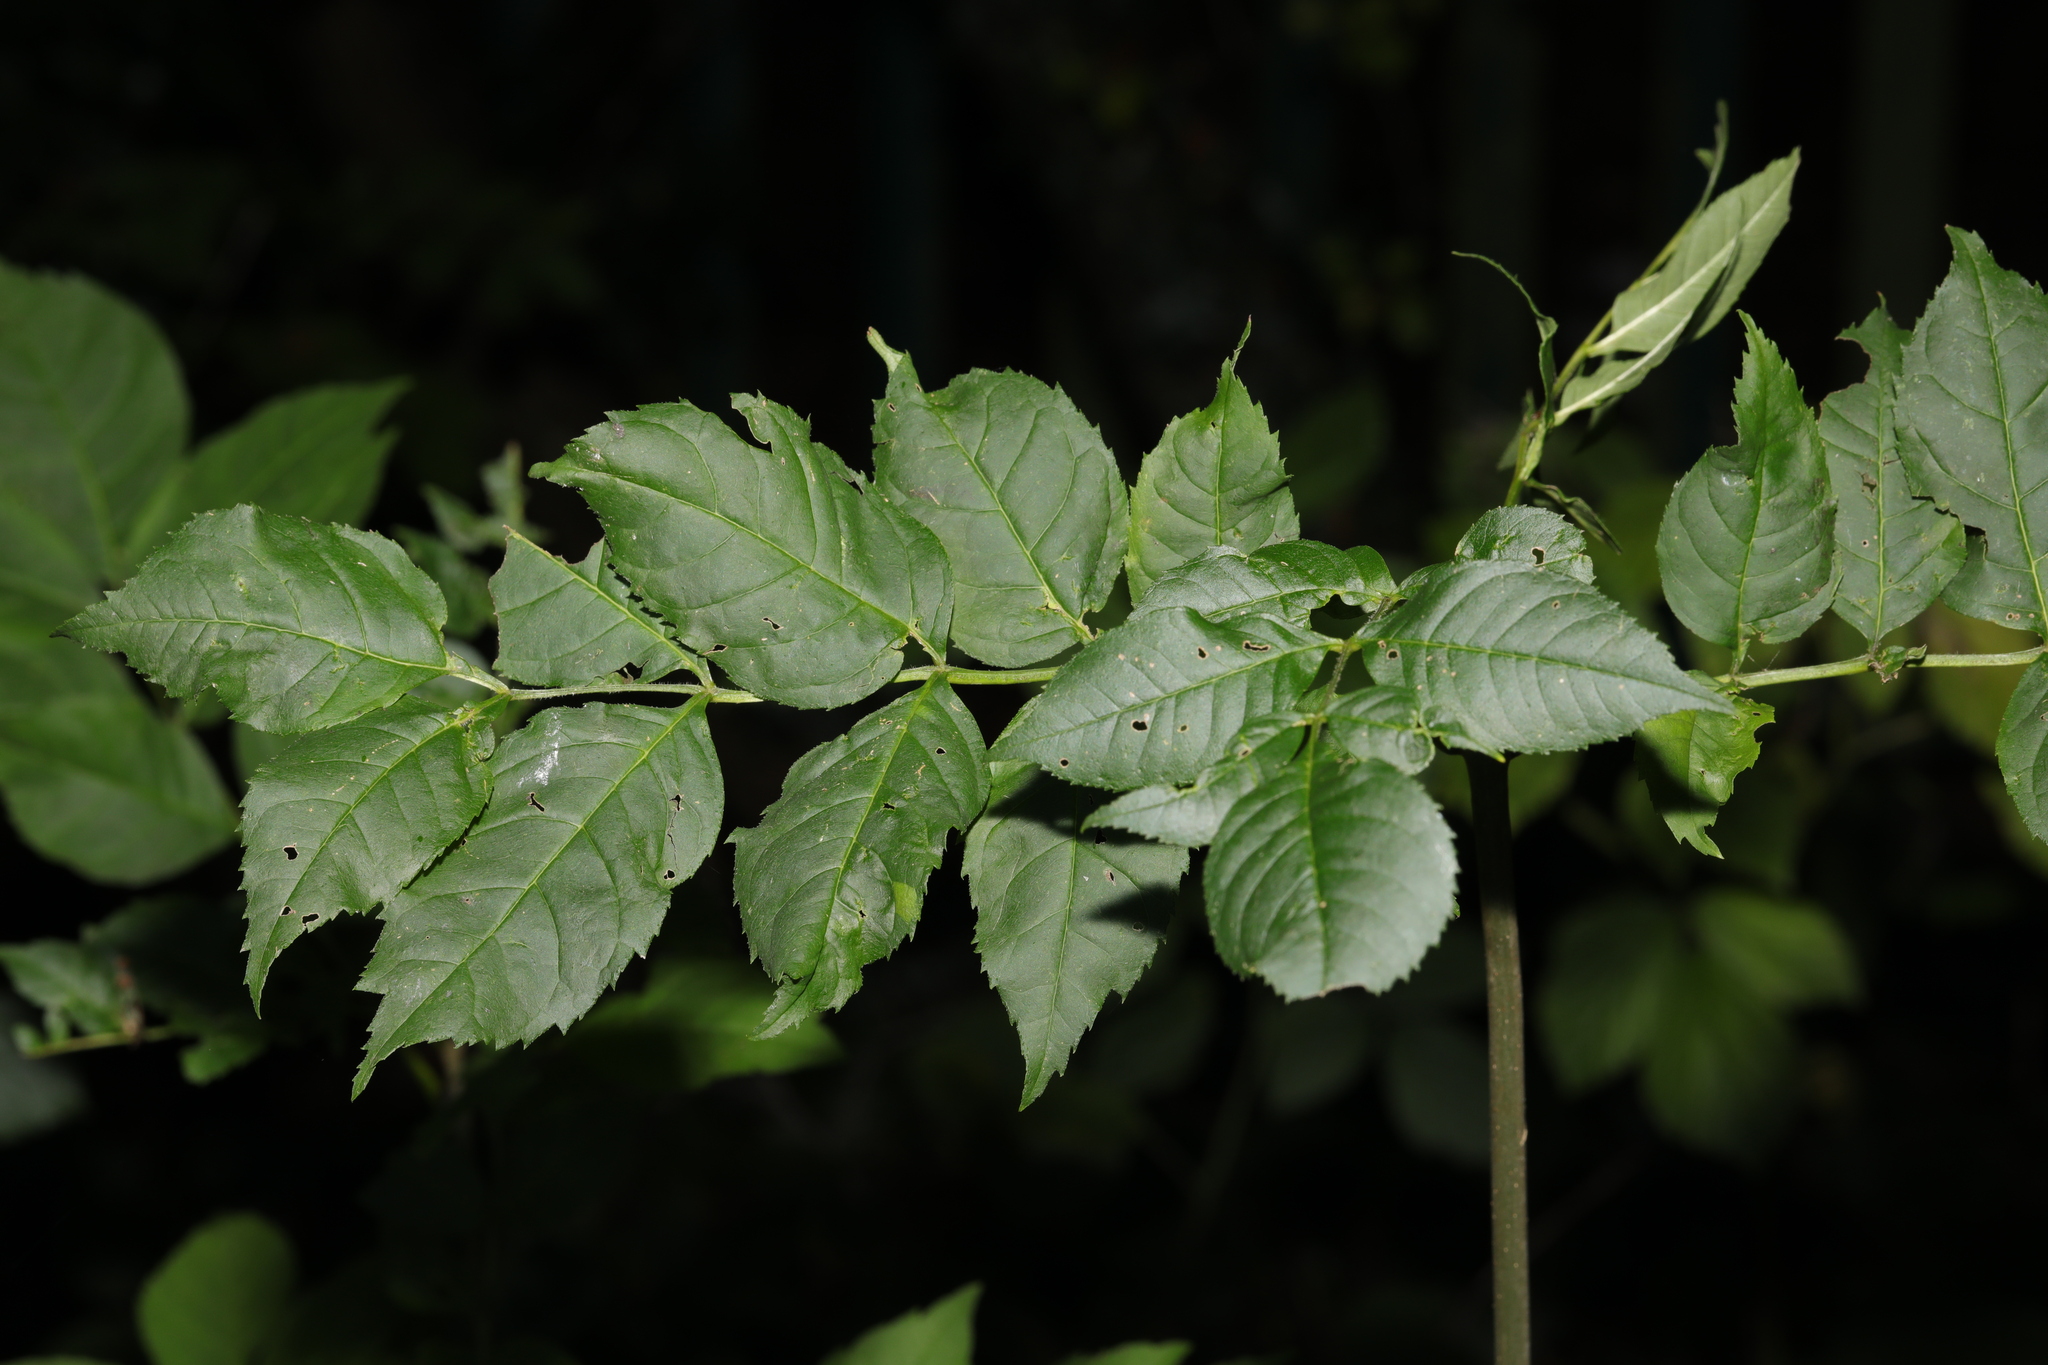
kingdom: Plantae
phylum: Tracheophyta
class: Magnoliopsida
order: Lamiales
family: Oleaceae
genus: Fraxinus
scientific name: Fraxinus excelsior
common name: European ash
